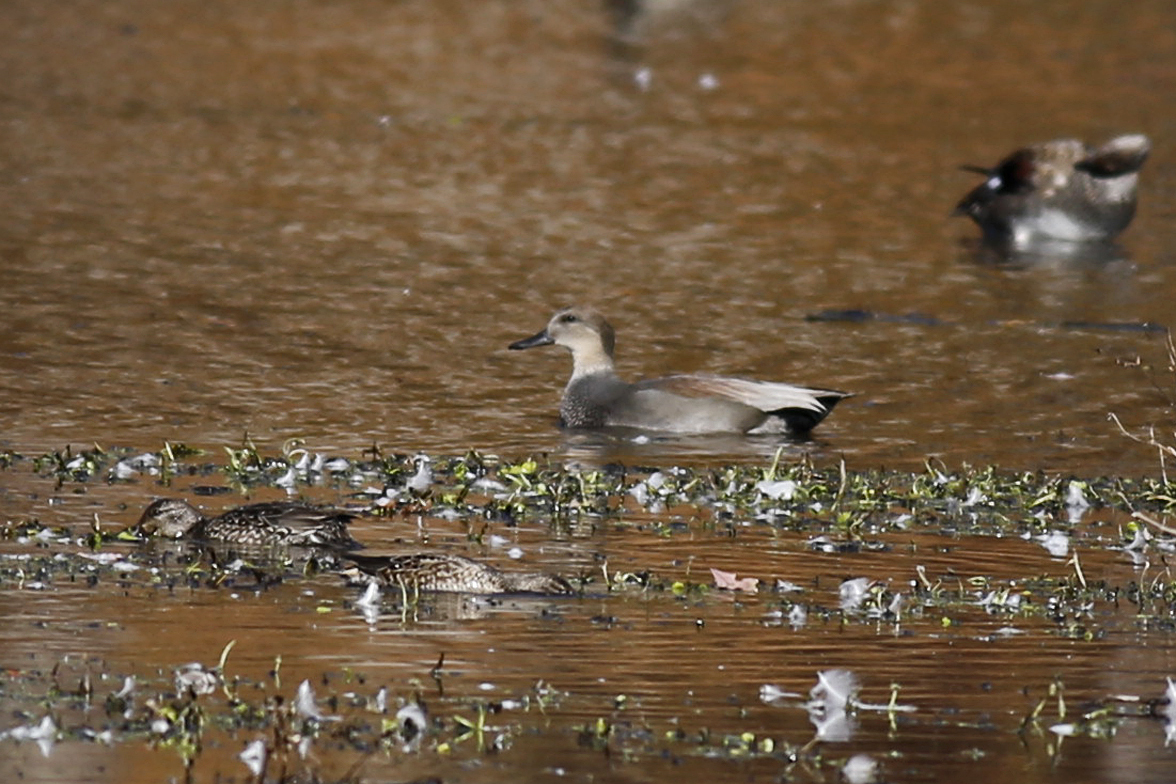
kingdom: Animalia
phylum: Chordata
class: Aves
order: Anseriformes
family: Anatidae
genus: Mareca
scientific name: Mareca strepera
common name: Gadwall
